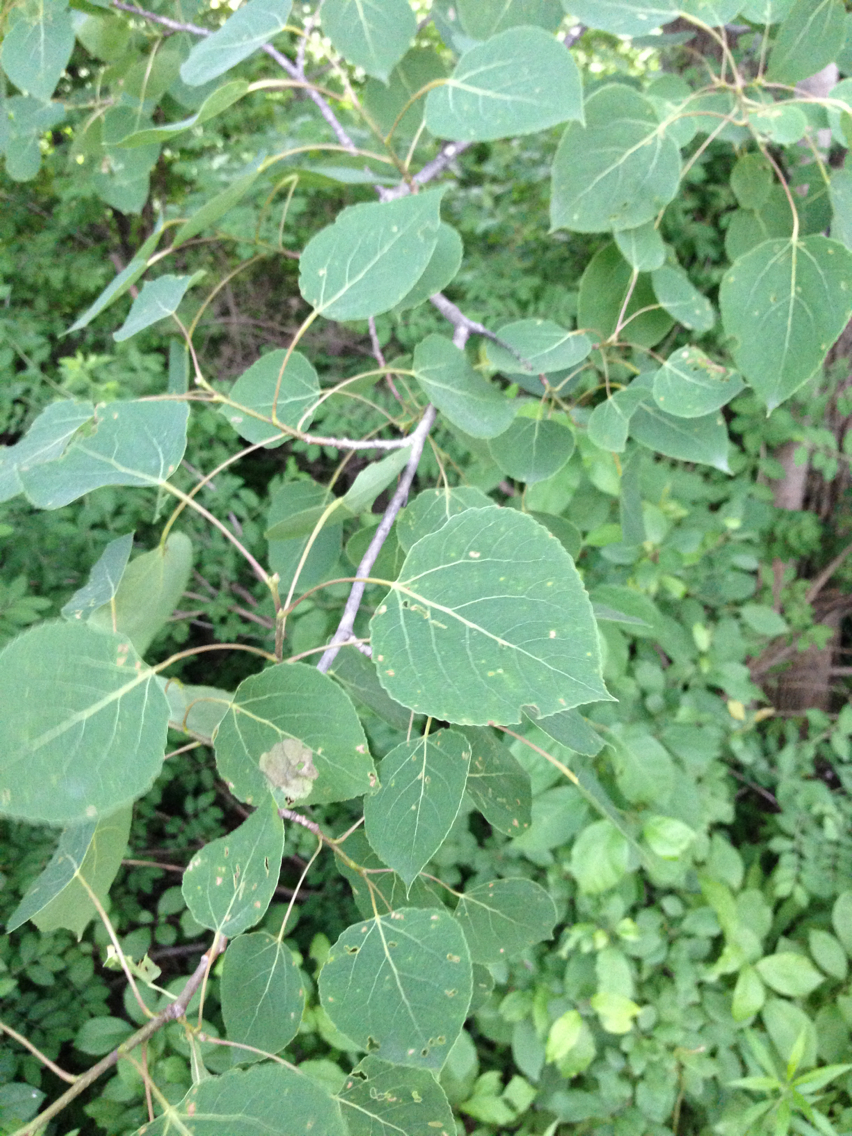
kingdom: Plantae
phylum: Tracheophyta
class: Magnoliopsida
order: Malpighiales
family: Salicaceae
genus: Populus
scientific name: Populus tremuloides
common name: Quaking aspen
